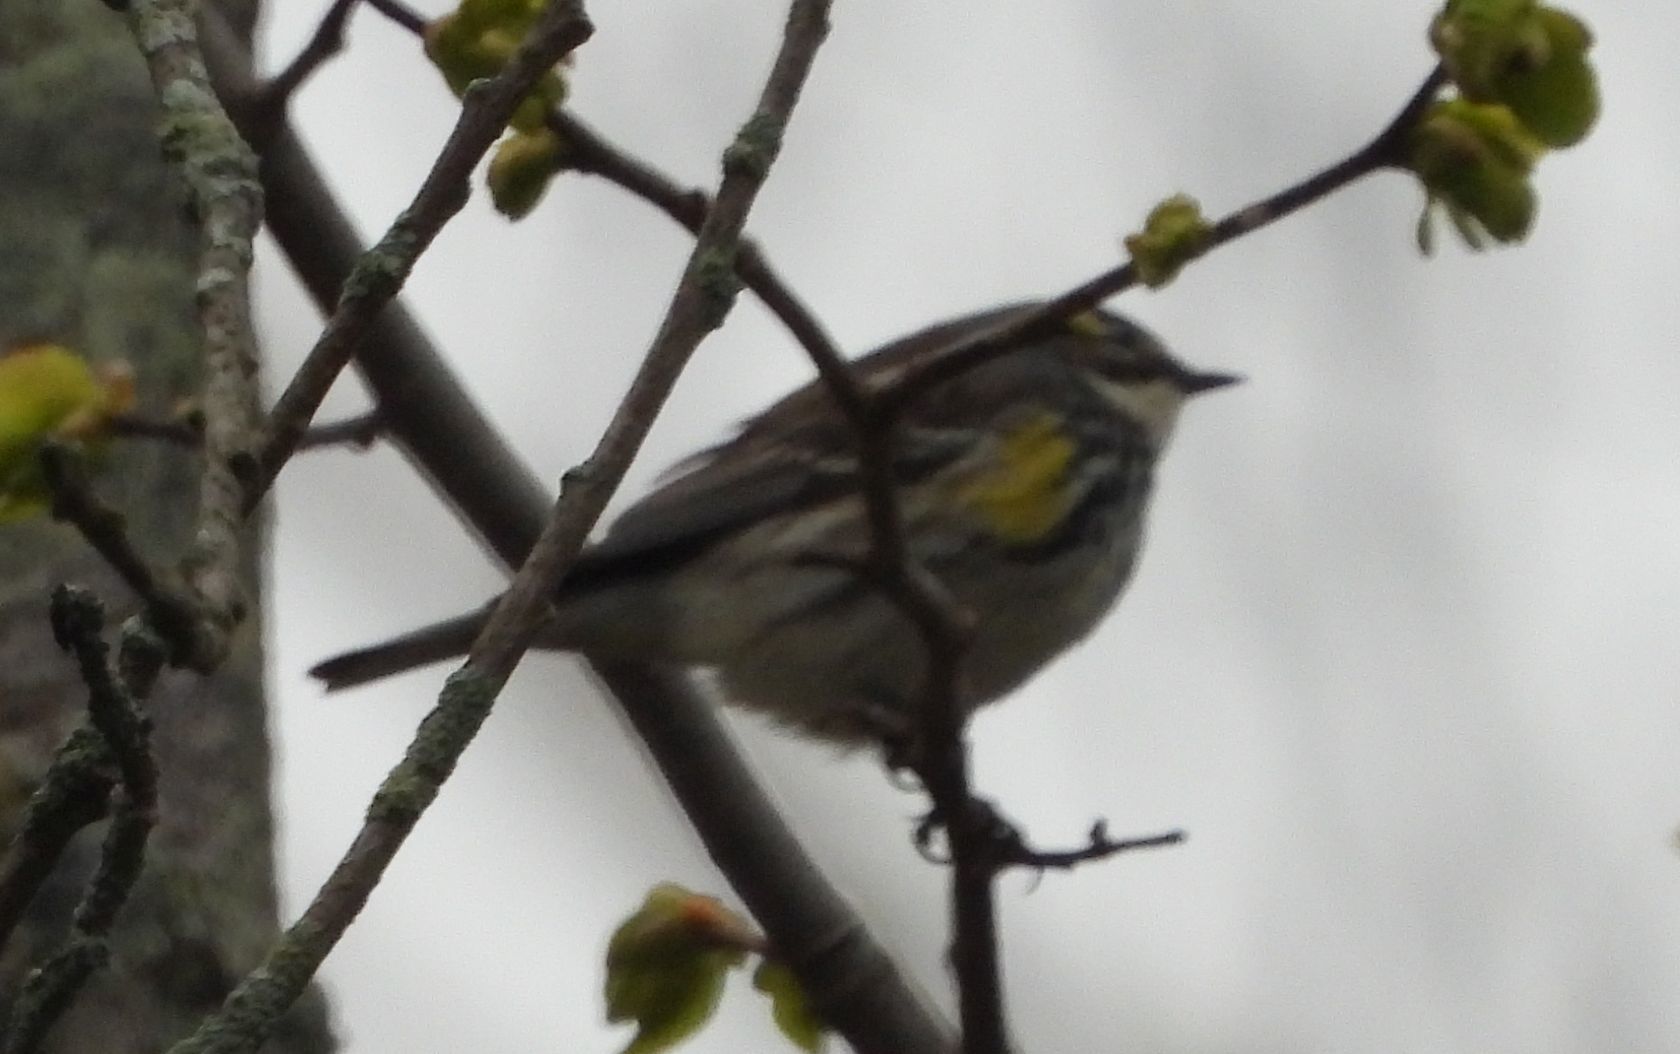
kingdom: Animalia
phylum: Chordata
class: Aves
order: Passeriformes
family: Parulidae
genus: Setophaga
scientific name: Setophaga coronata
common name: Myrtle warbler
